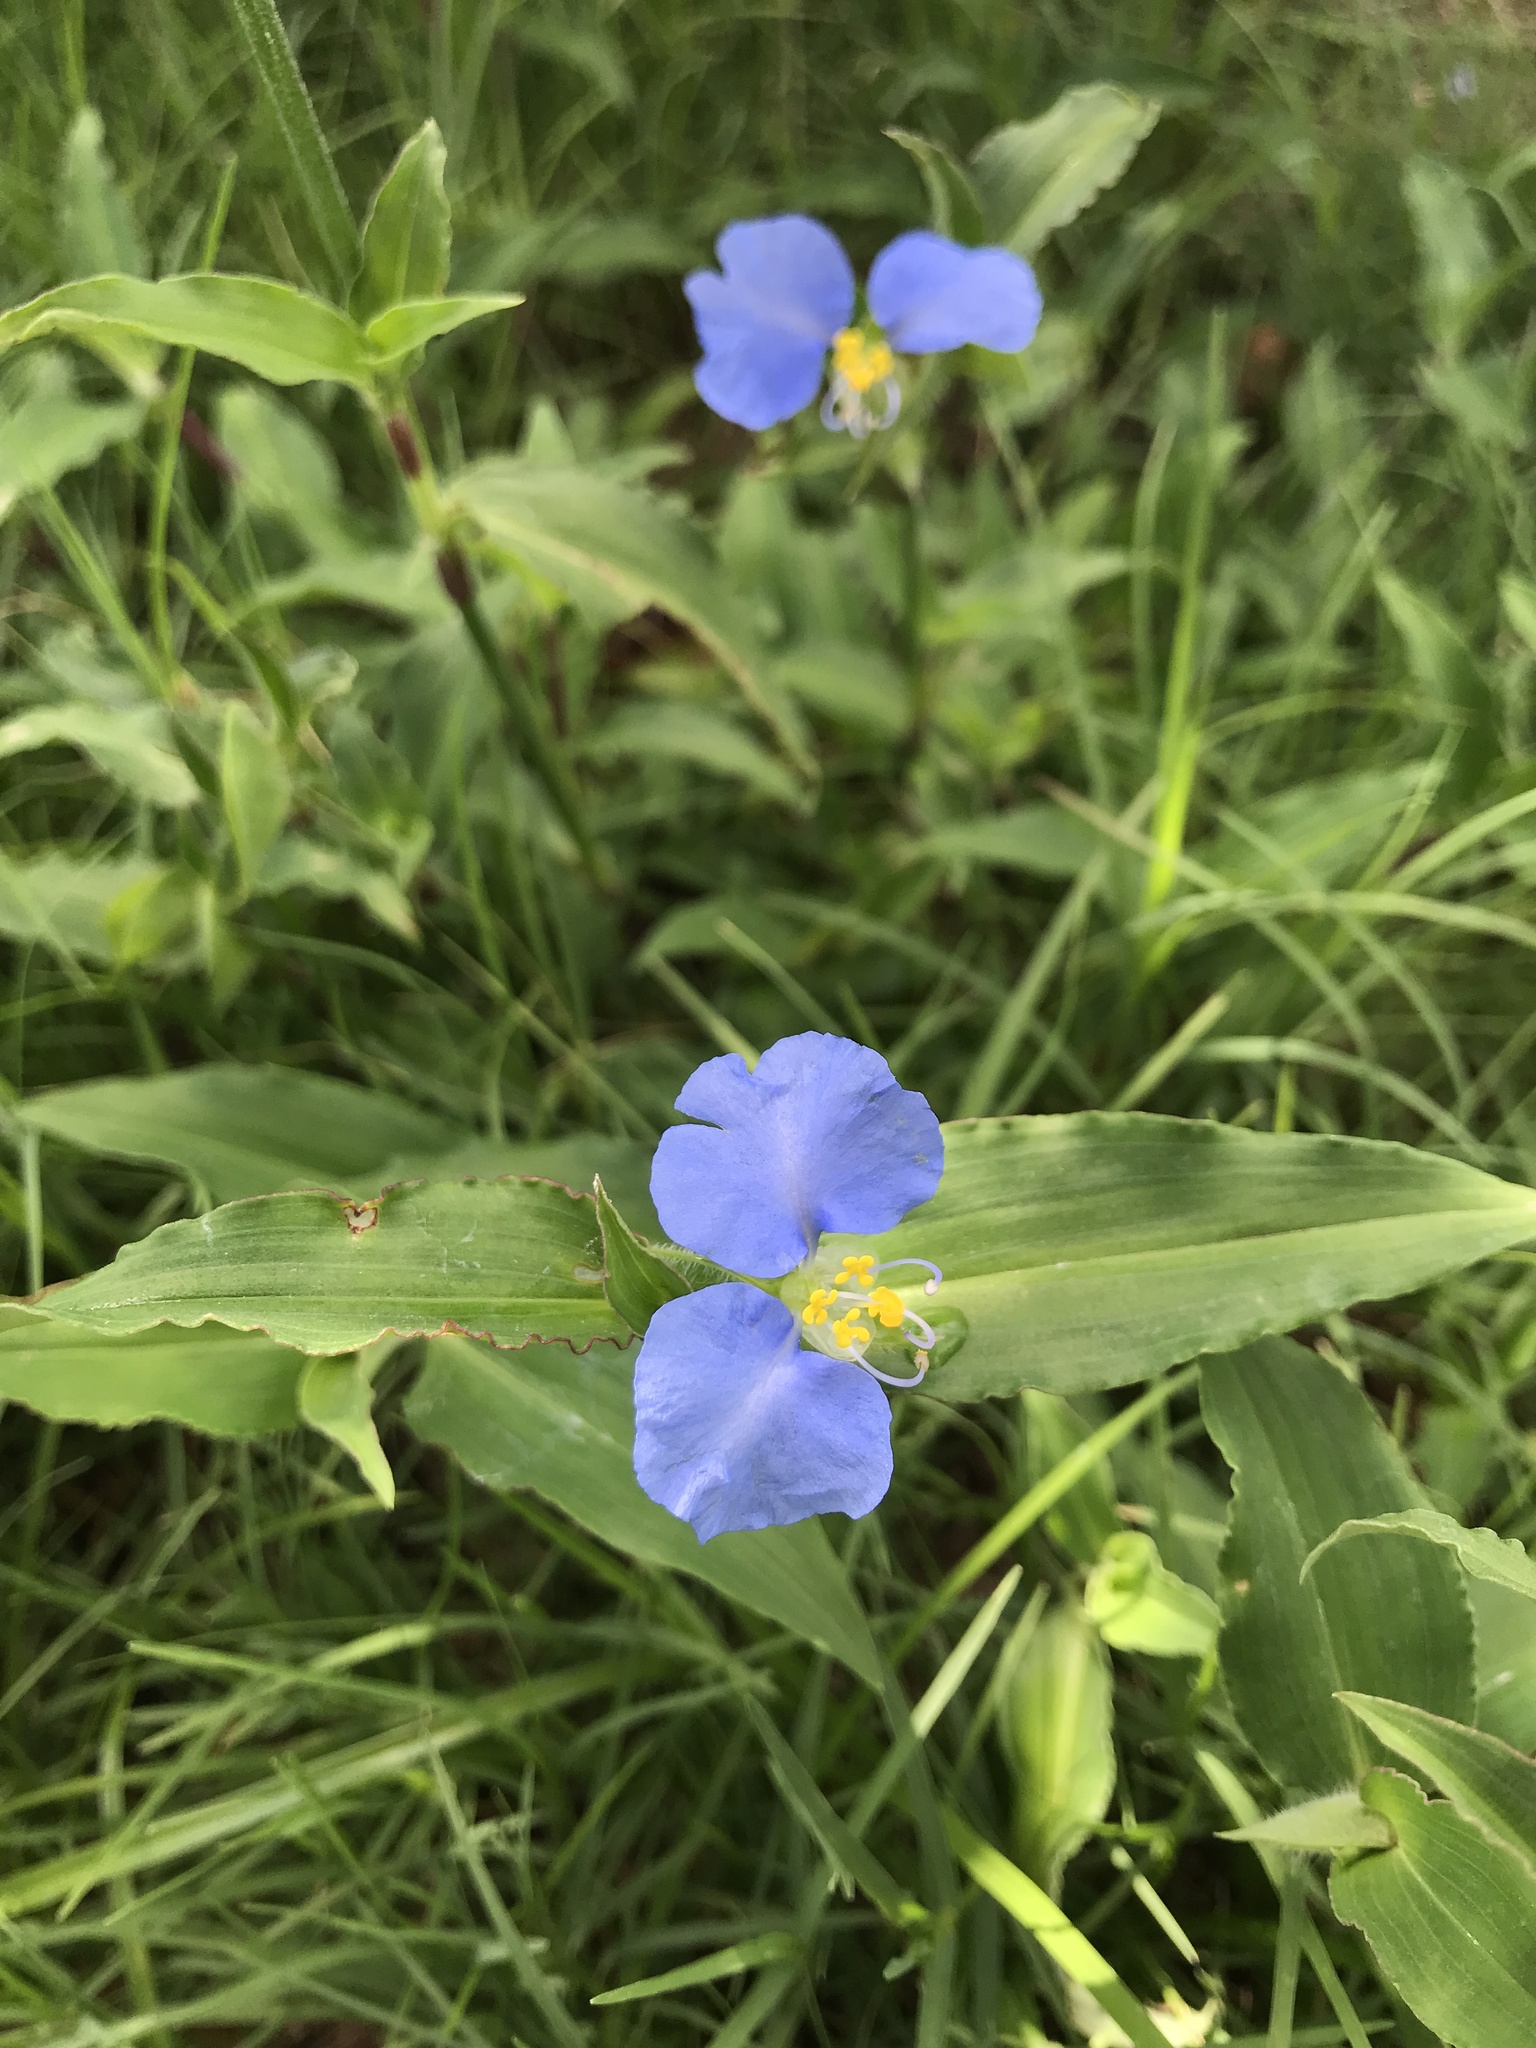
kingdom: Plantae
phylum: Tracheophyta
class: Liliopsida
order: Commelinales
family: Commelinaceae
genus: Commelina
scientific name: Commelina erecta
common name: Blousel blommetjie
